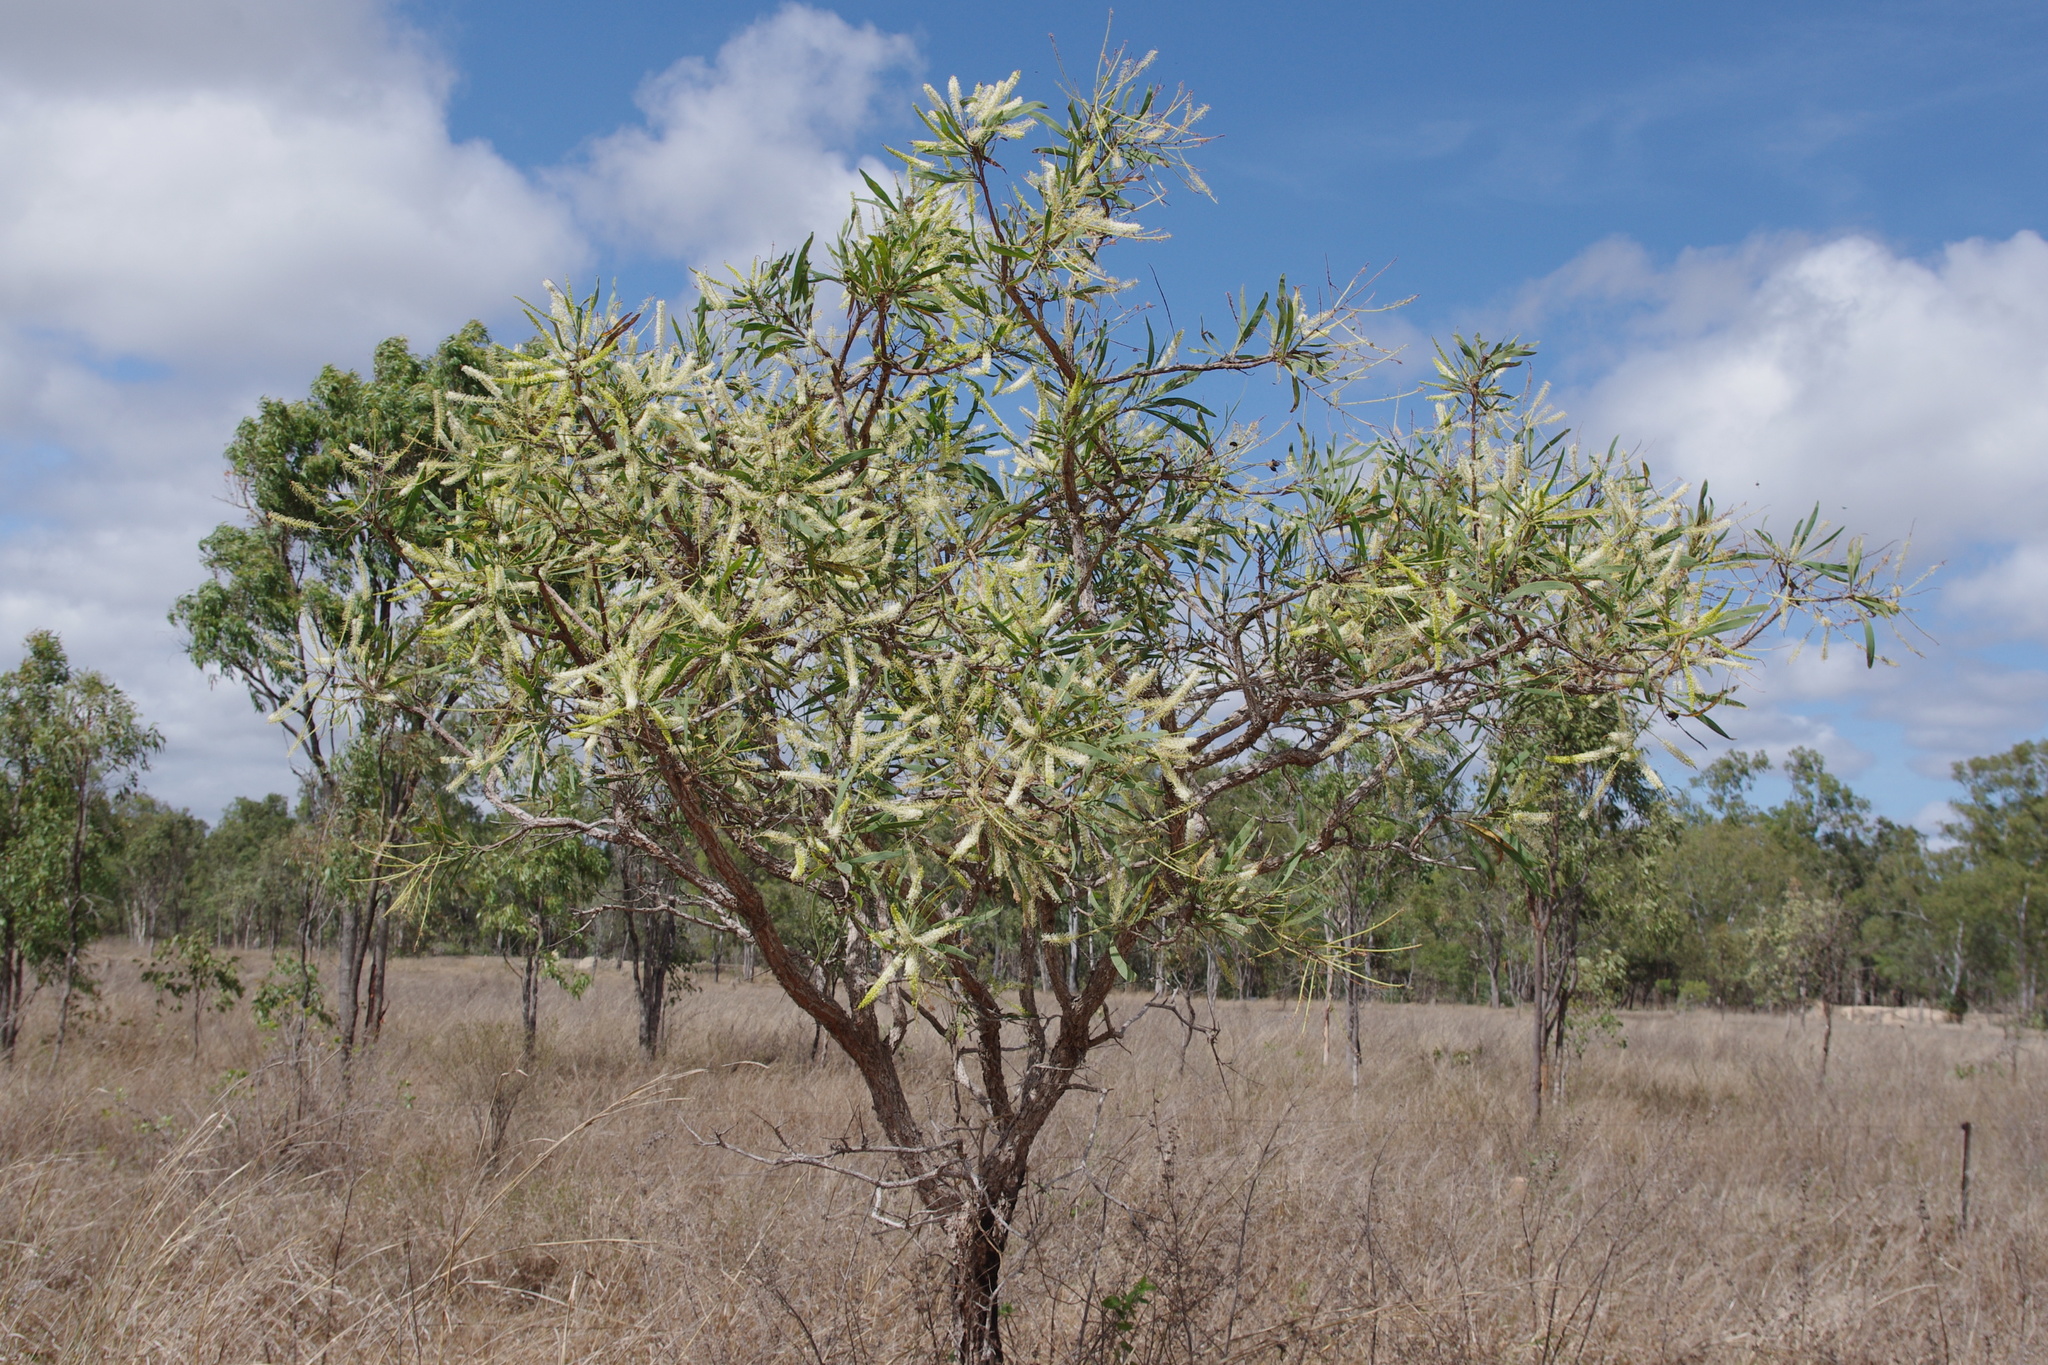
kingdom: Plantae
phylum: Tracheophyta
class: Magnoliopsida
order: Proteales
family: Proteaceae
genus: Grevillea
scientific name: Grevillea mimosoides
